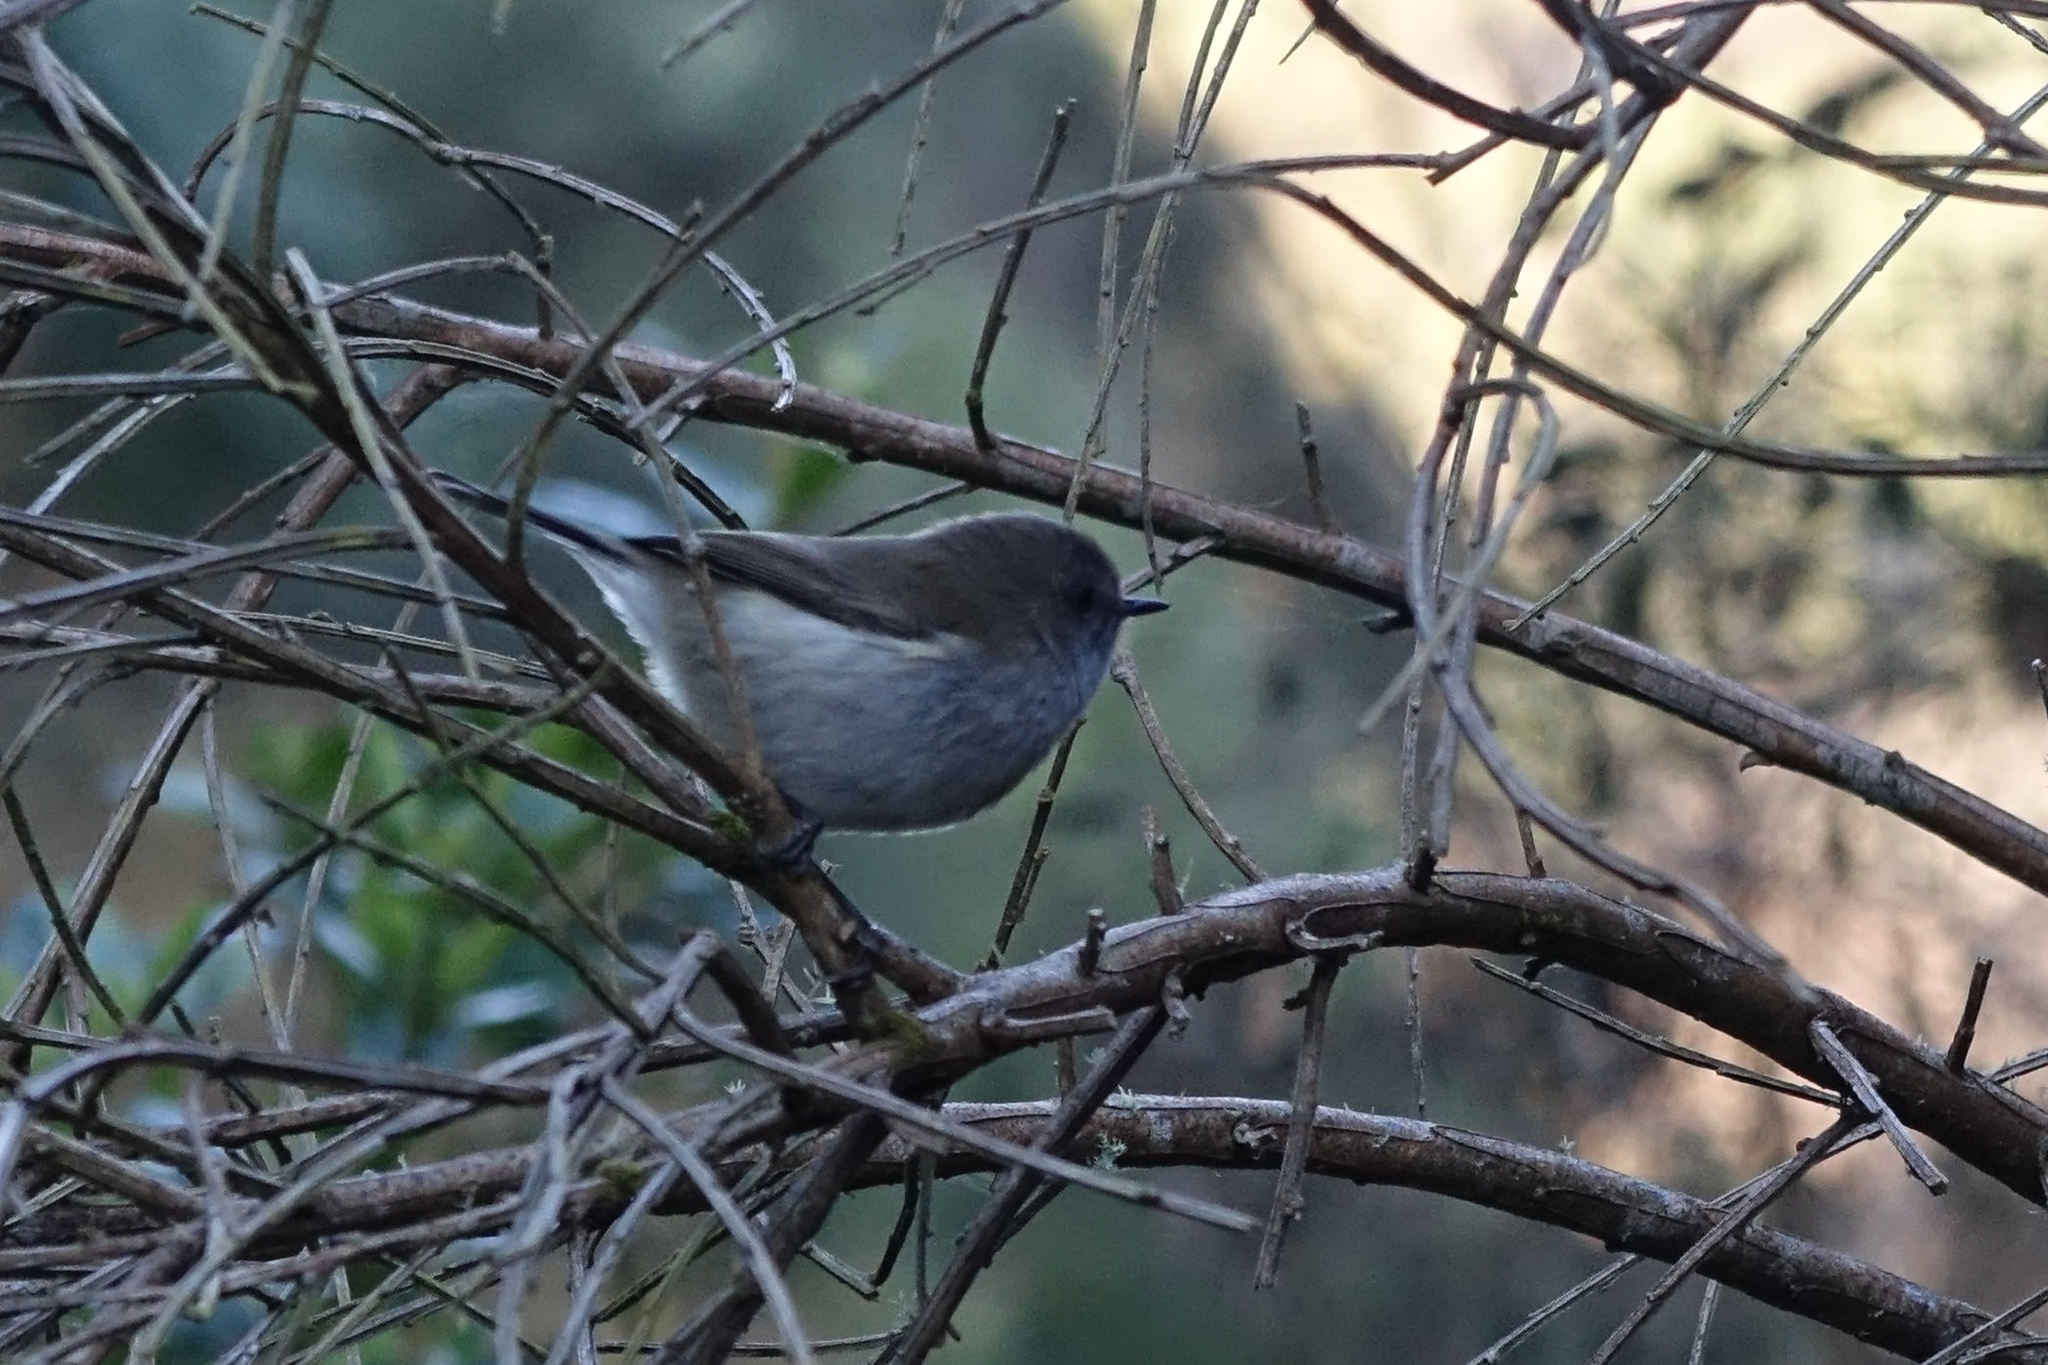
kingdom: Animalia
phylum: Chordata
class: Aves
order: Passeriformes
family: Acanthizidae
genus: Gerygone
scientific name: Gerygone igata
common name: Grey gerygone
